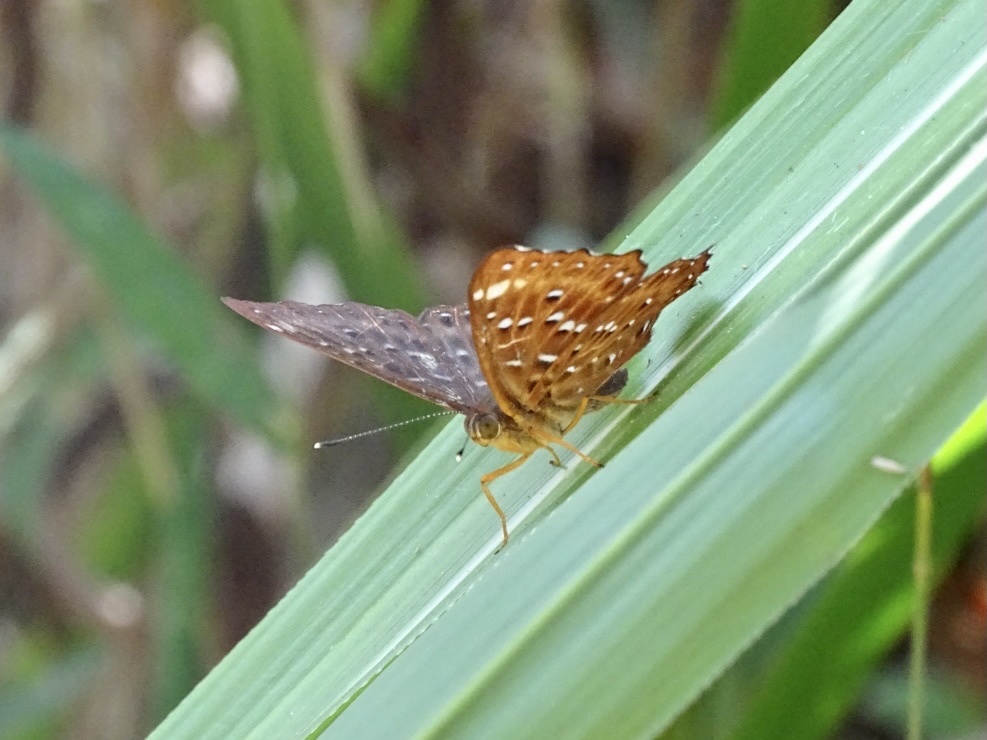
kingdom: Animalia
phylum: Arthropoda
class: Insecta
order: Lepidoptera
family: Riodinidae
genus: Zemeros
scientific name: Zemeros flegyas
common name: Punchinello
